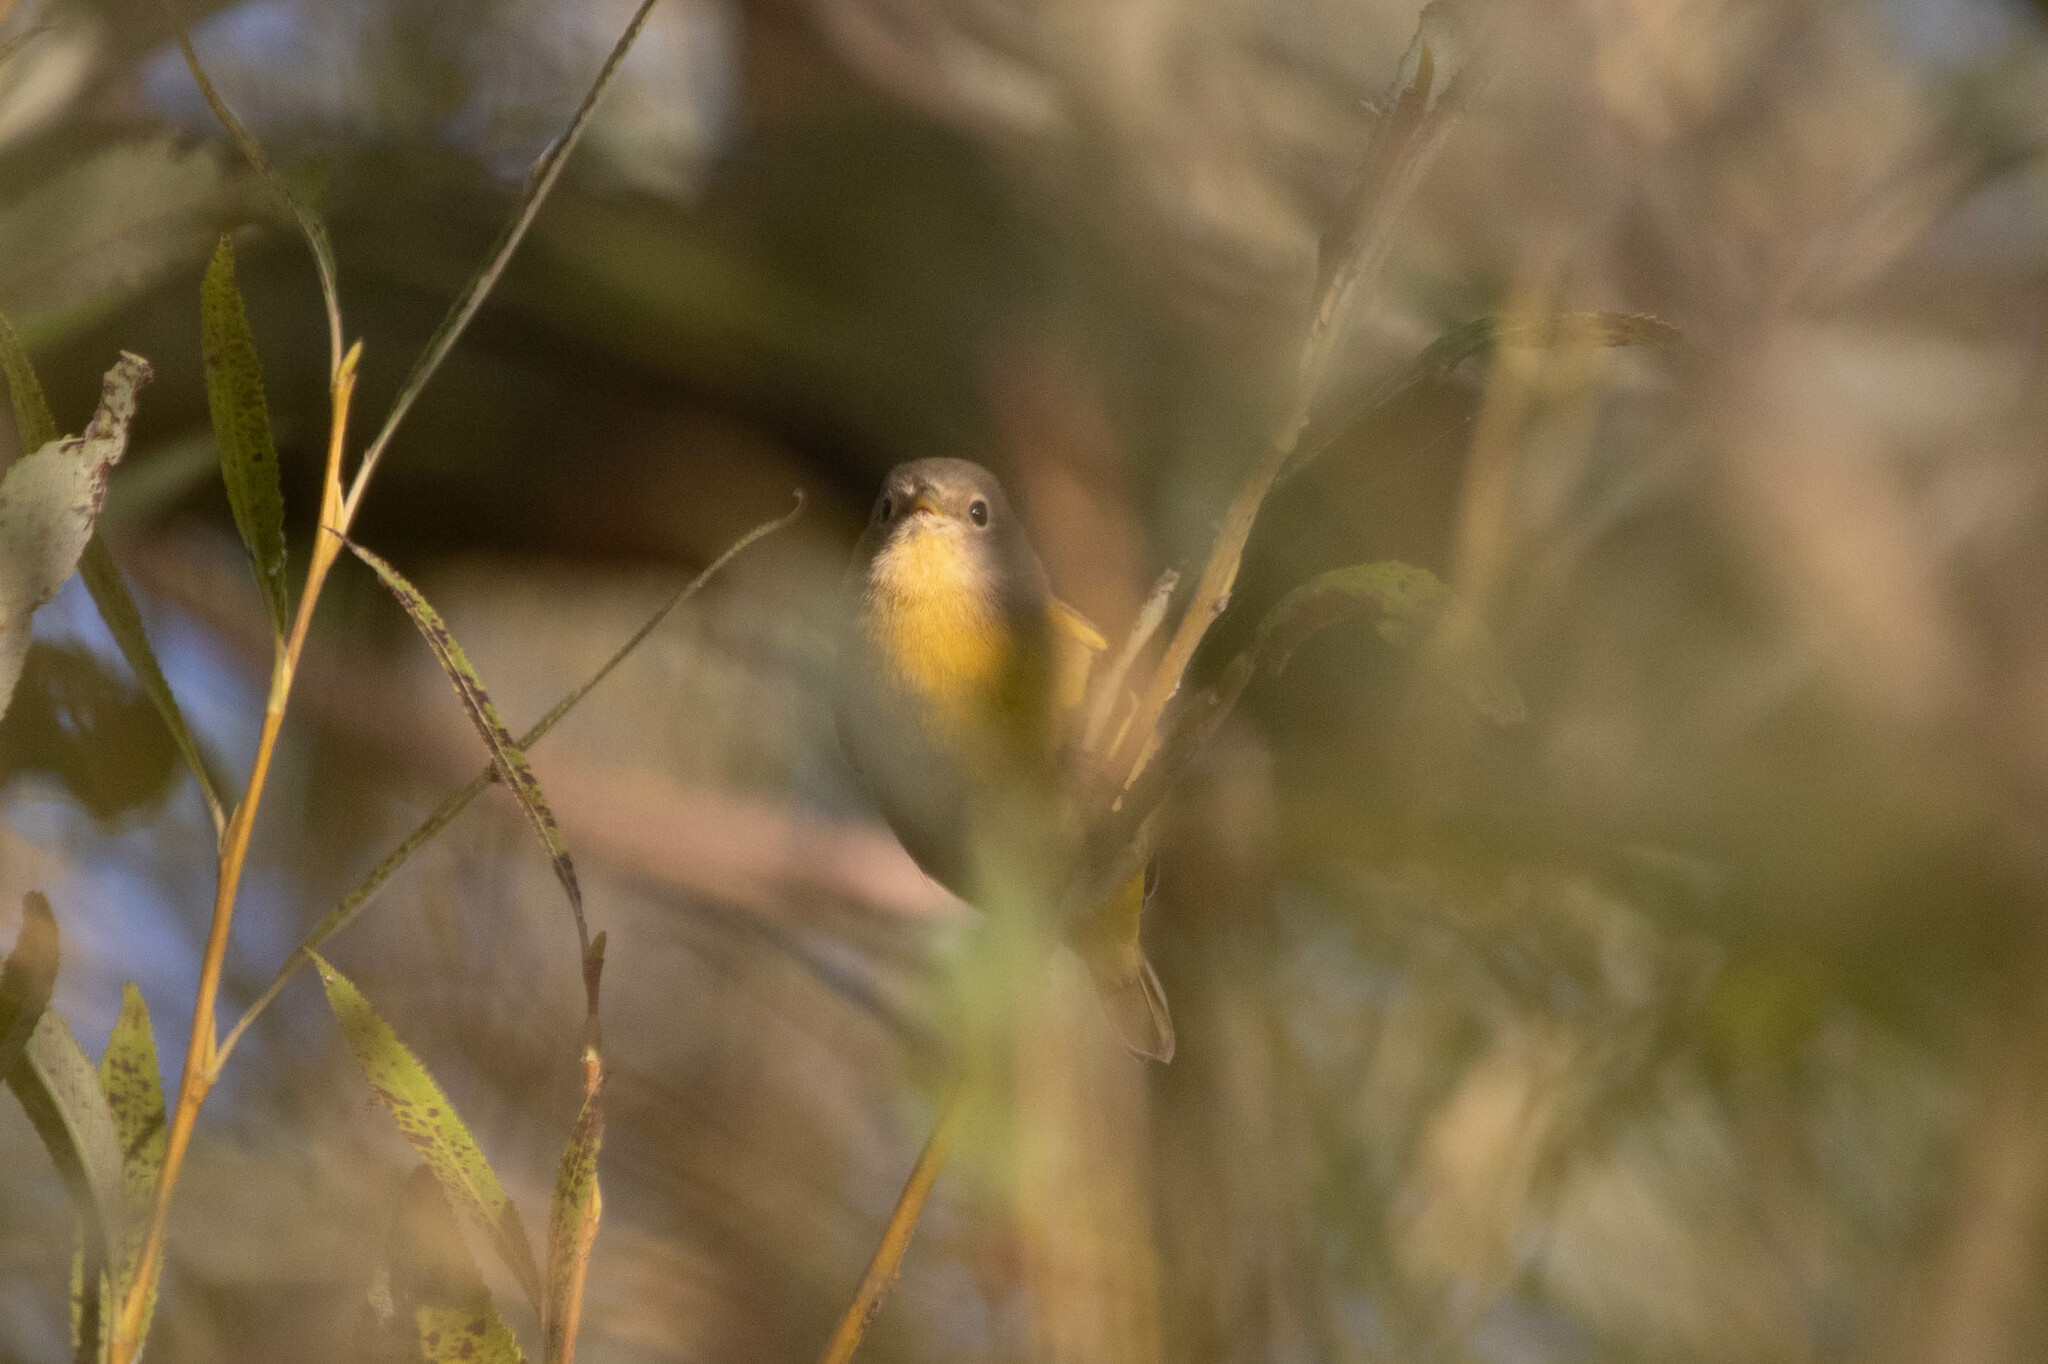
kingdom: Animalia
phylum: Chordata
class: Aves
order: Passeriformes
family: Parulidae
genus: Leiothlypis
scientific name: Leiothlypis ruficapilla
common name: Nashville warbler
